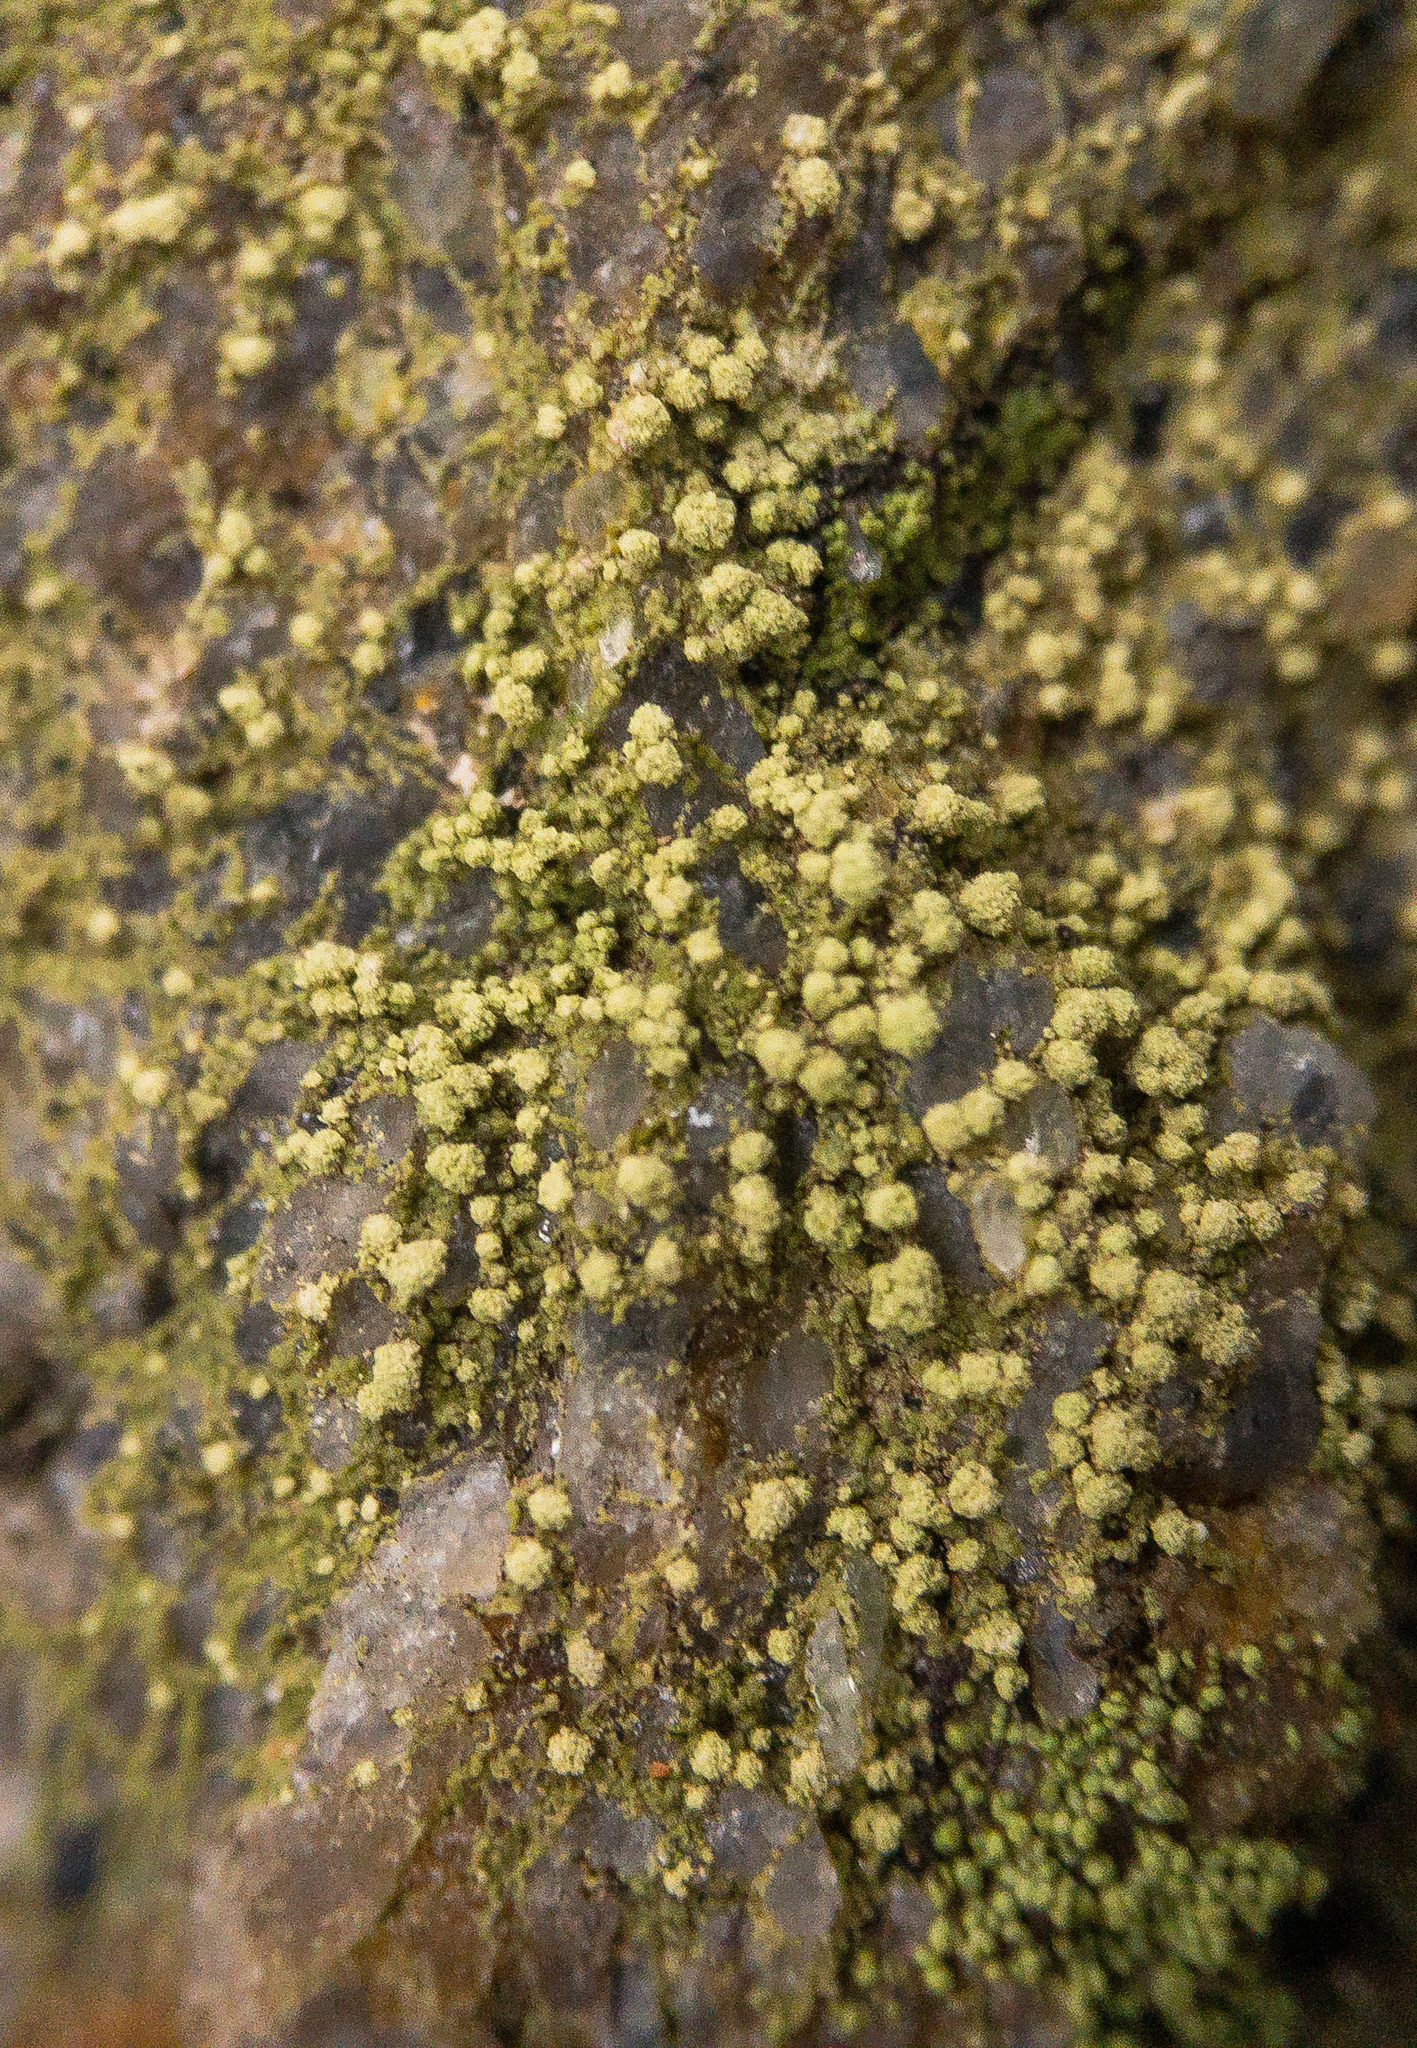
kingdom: Fungi
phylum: Ascomycota
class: Lecanoromycetes
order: Lecanorales
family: Ramalinaceae
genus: Biatora
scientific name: Biatora appalachensis
